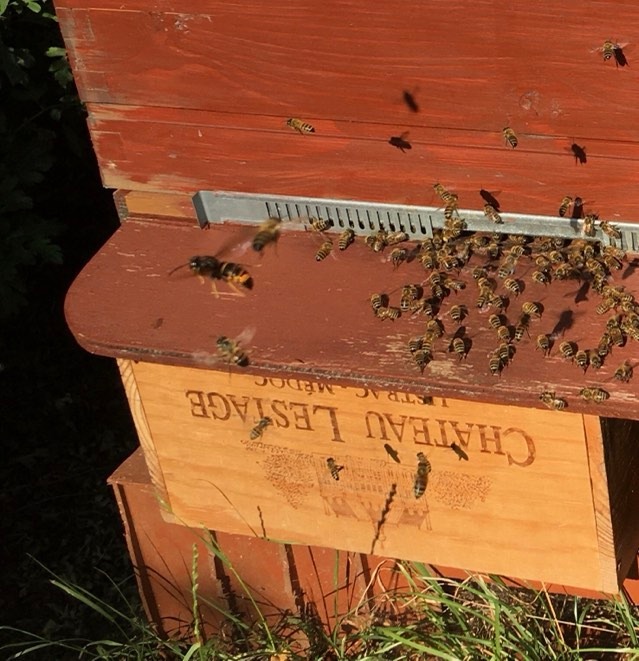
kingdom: Animalia
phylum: Arthropoda
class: Insecta
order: Hymenoptera
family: Vespidae
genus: Vespa
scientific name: Vespa velutina
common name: Asian hornet
